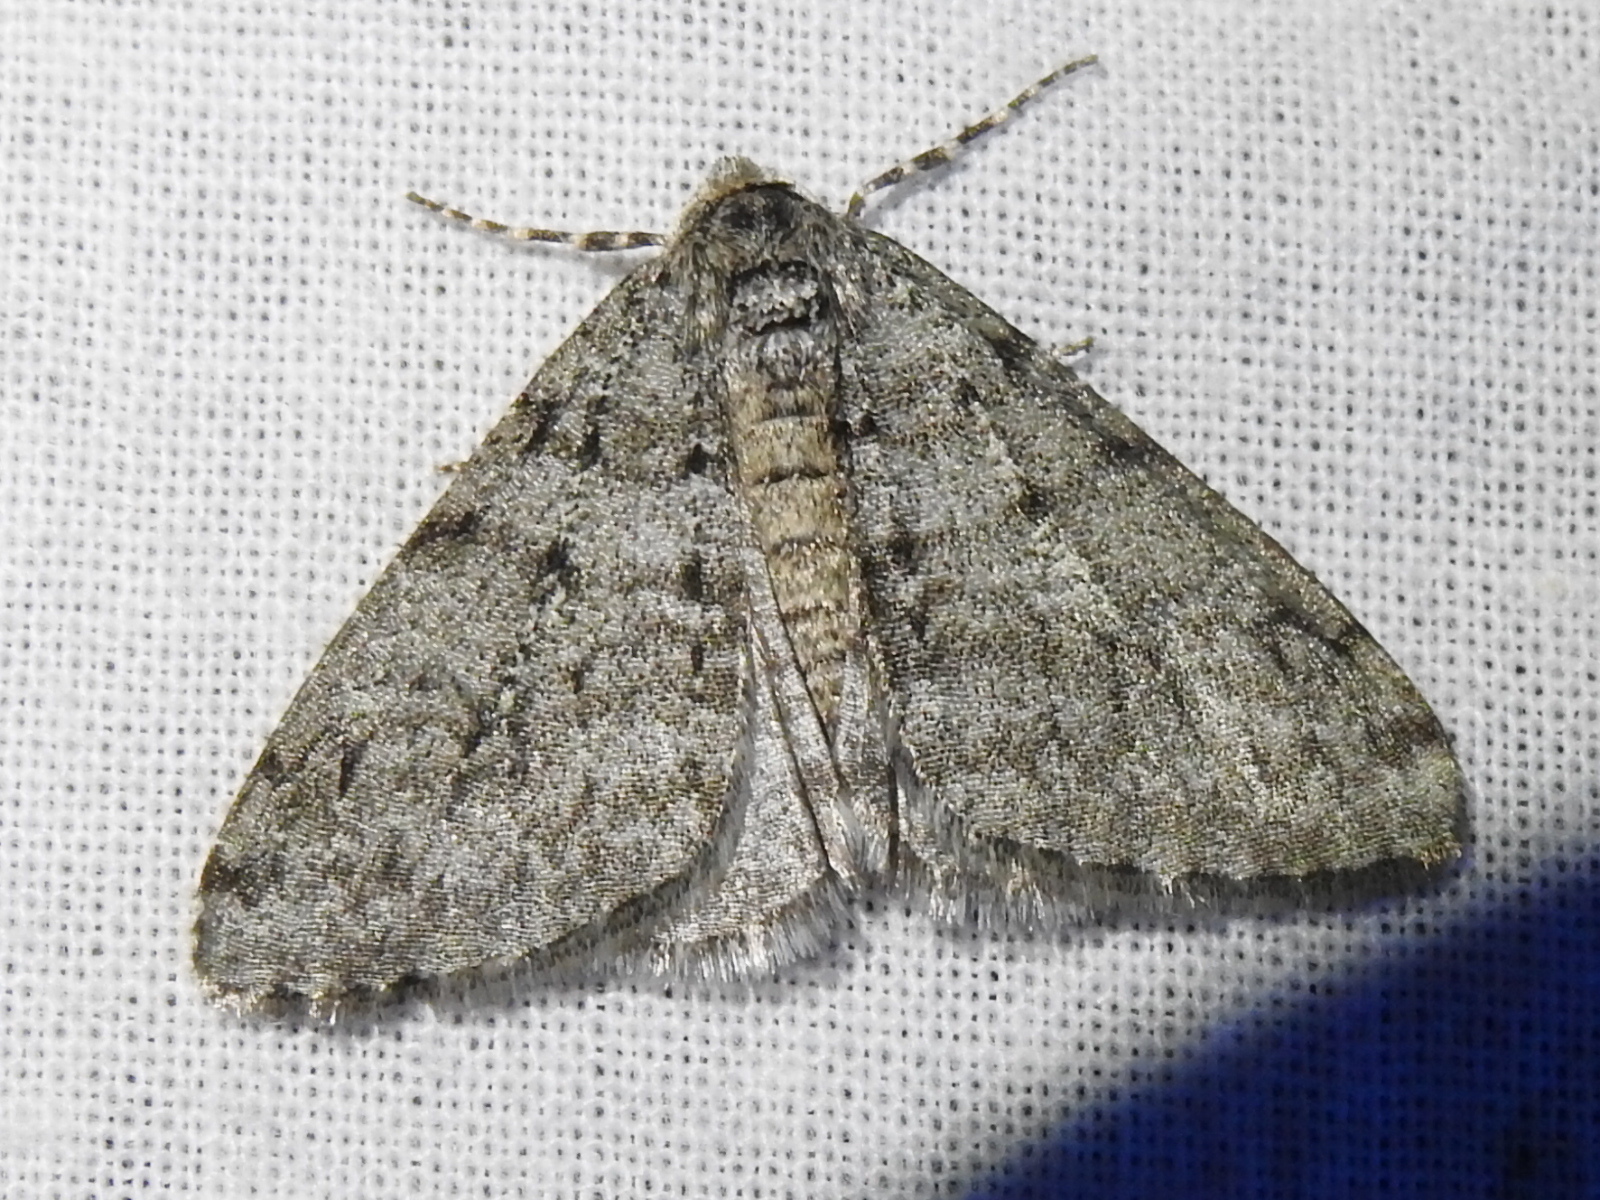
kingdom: Animalia
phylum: Arthropoda
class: Insecta
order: Lepidoptera
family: Geometridae
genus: Phigalia
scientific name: Phigalia strigataria
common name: Small phigalia
